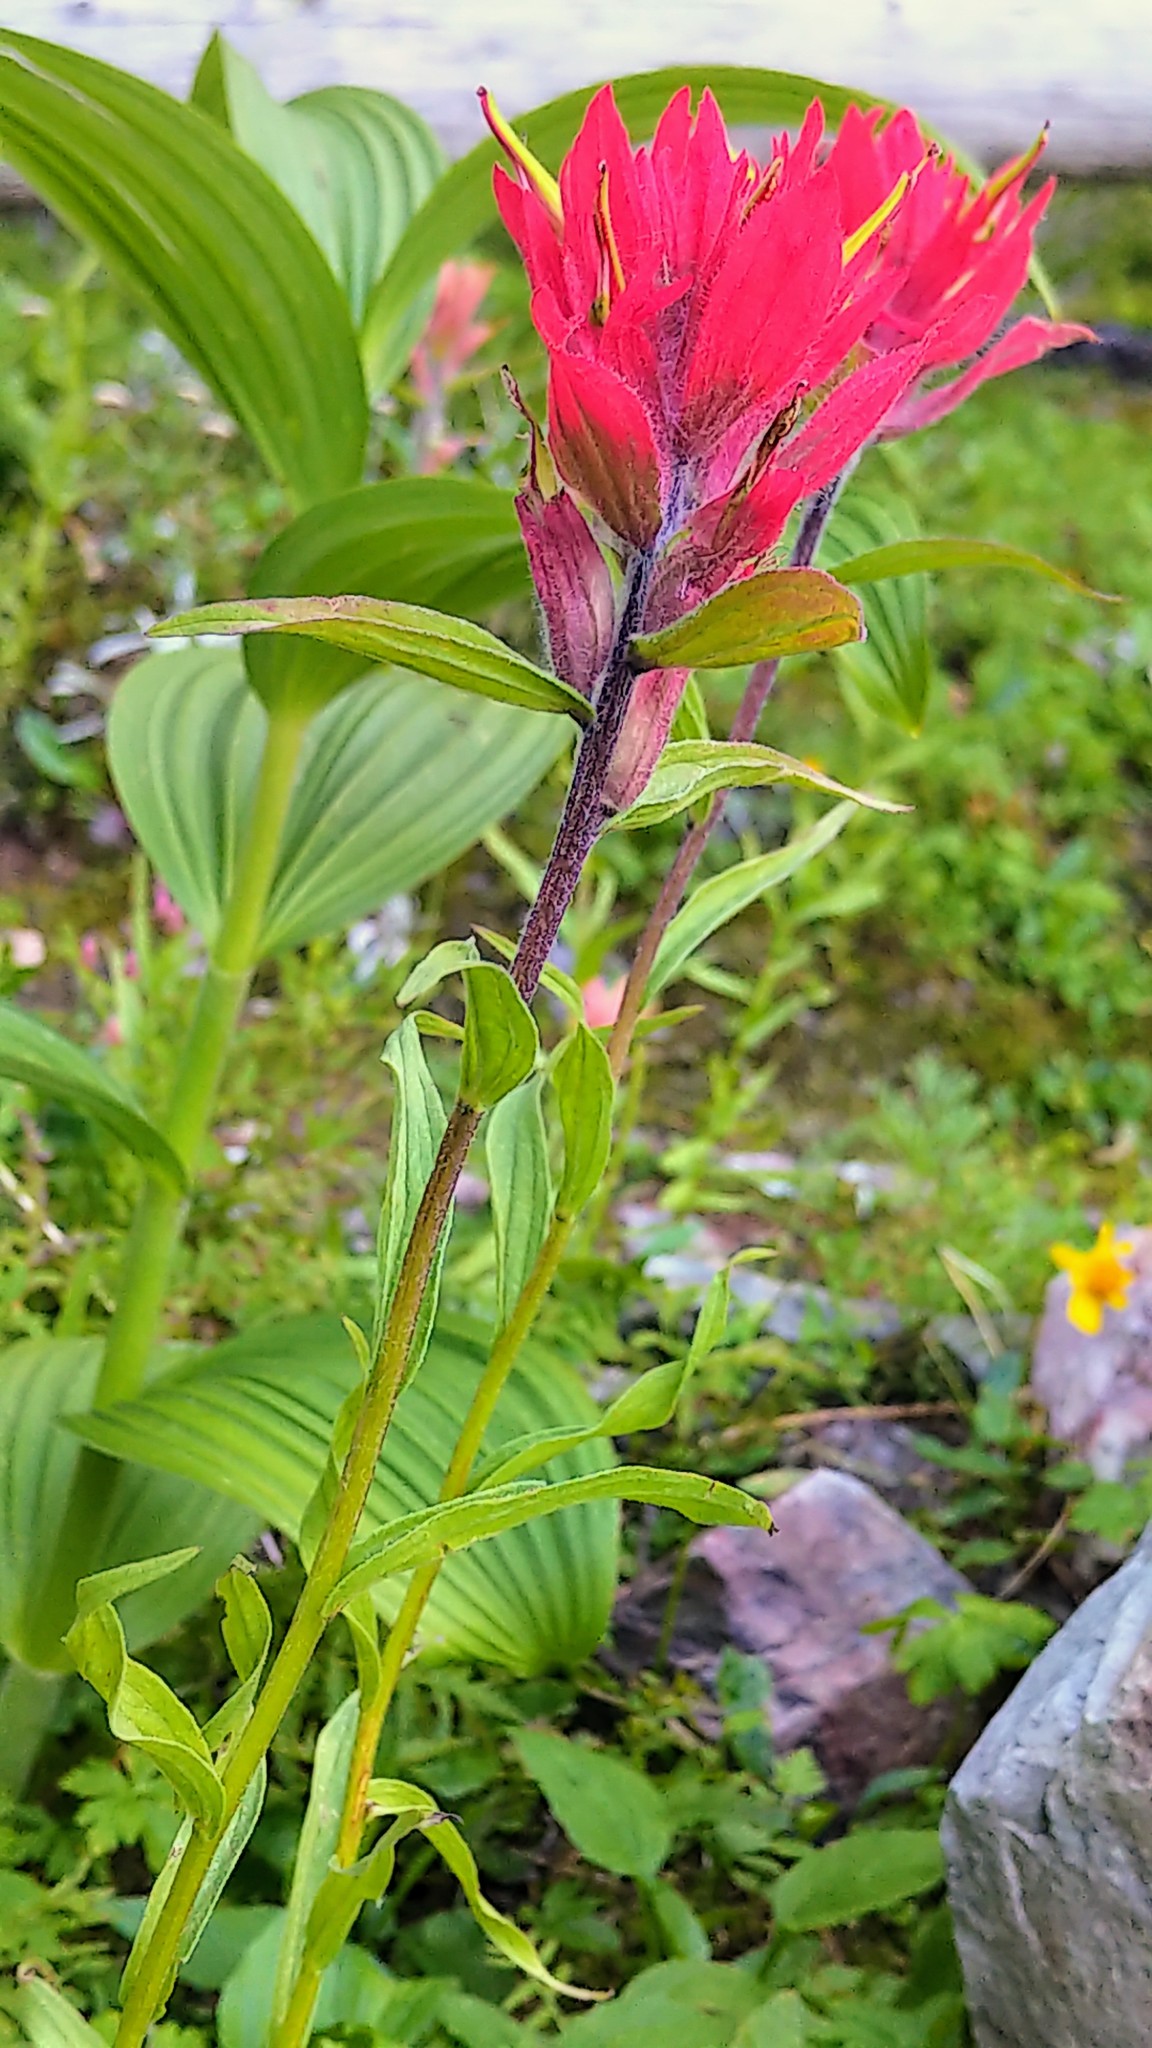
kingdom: Plantae
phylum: Tracheophyta
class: Magnoliopsida
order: Lamiales
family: Orobanchaceae
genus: Castilleja
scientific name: Castilleja rhexifolia
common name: Rocky mountain paintbrush
